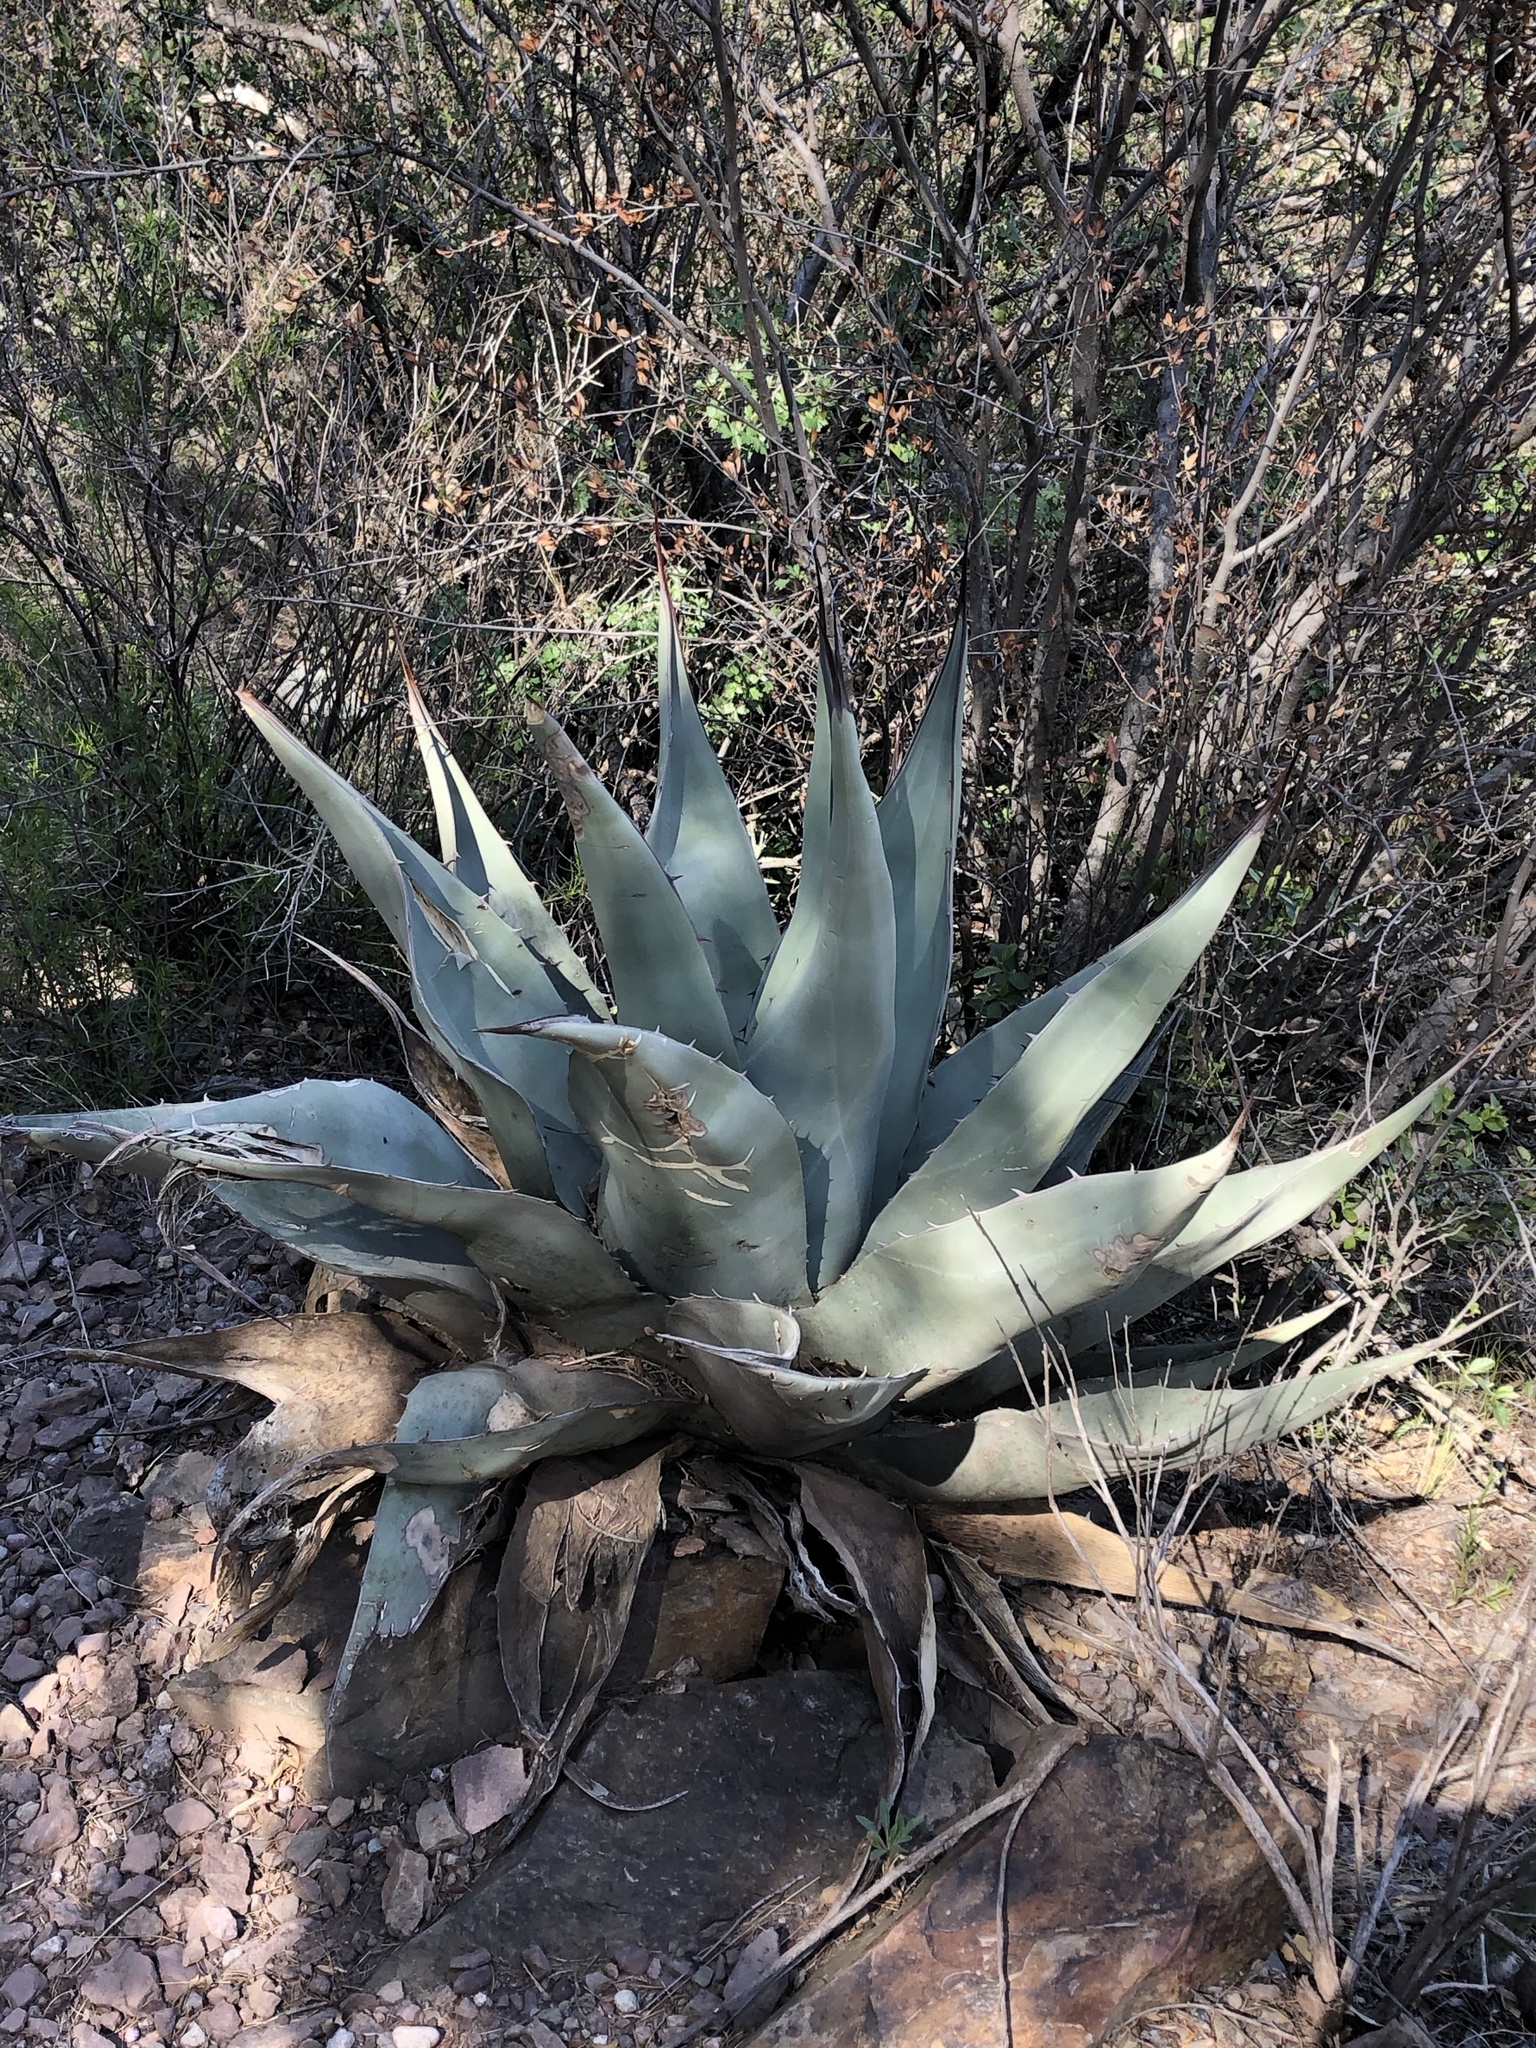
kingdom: Plantae
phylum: Tracheophyta
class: Liliopsida
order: Asparagales
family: Asparagaceae
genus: Agave
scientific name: Agave havardiana
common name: Havard agave
